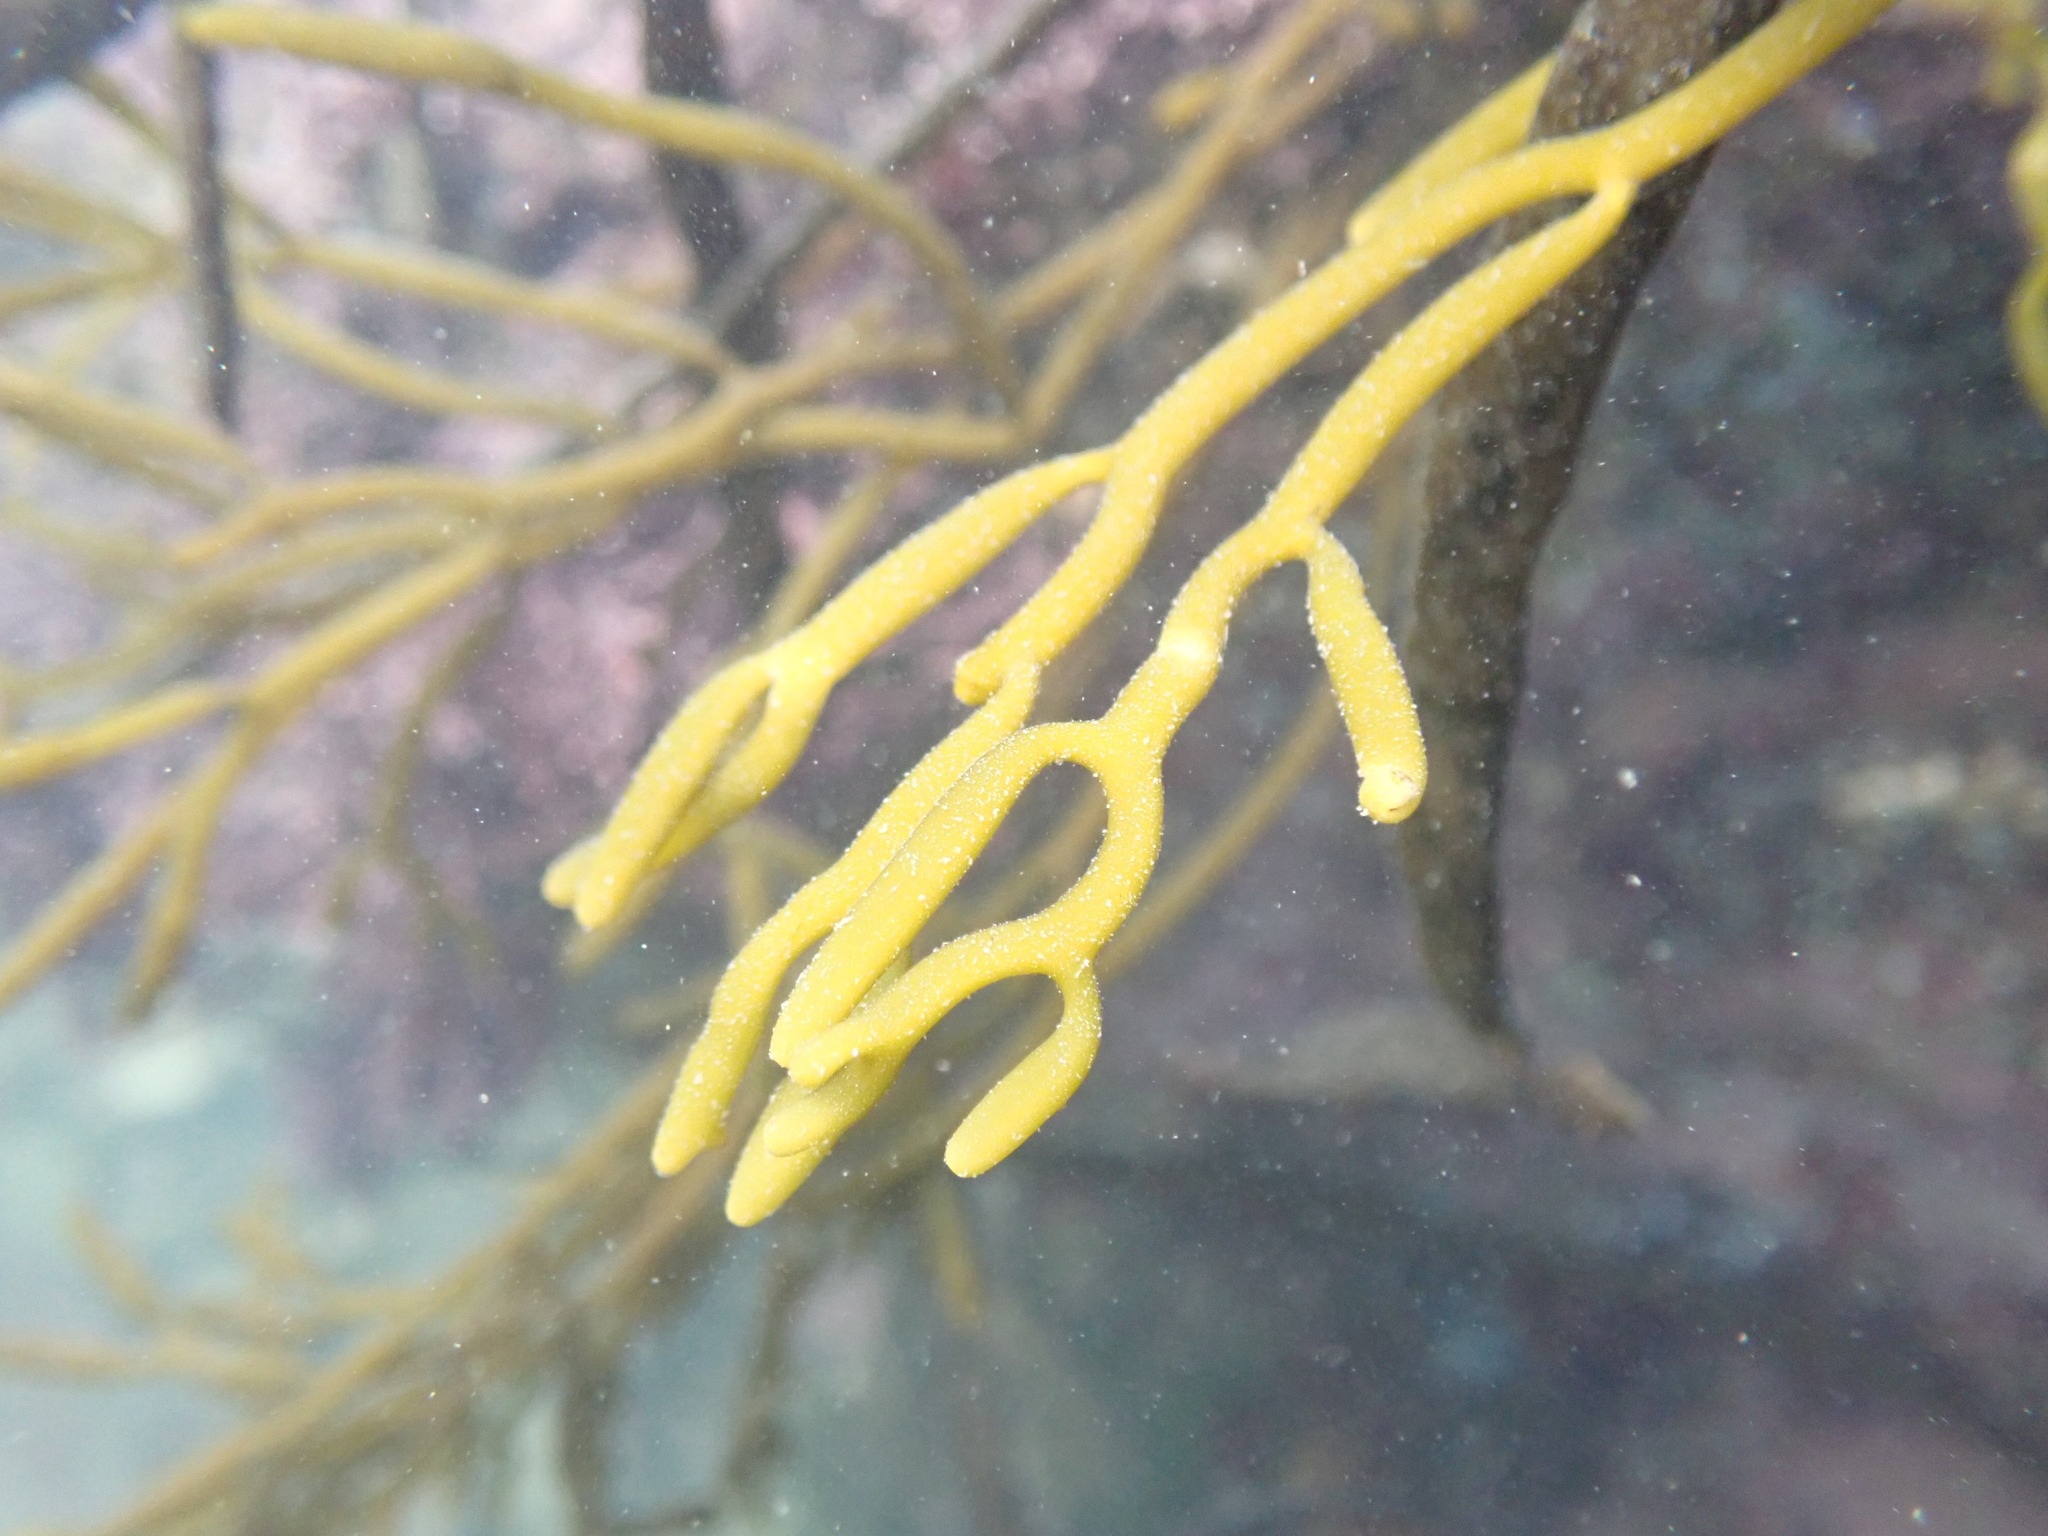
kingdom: Chromista
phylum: Ochrophyta
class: Phaeophyceae
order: Fucales
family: Sargassaceae
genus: Bifurcaria
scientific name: Bifurcaria bifurcata
